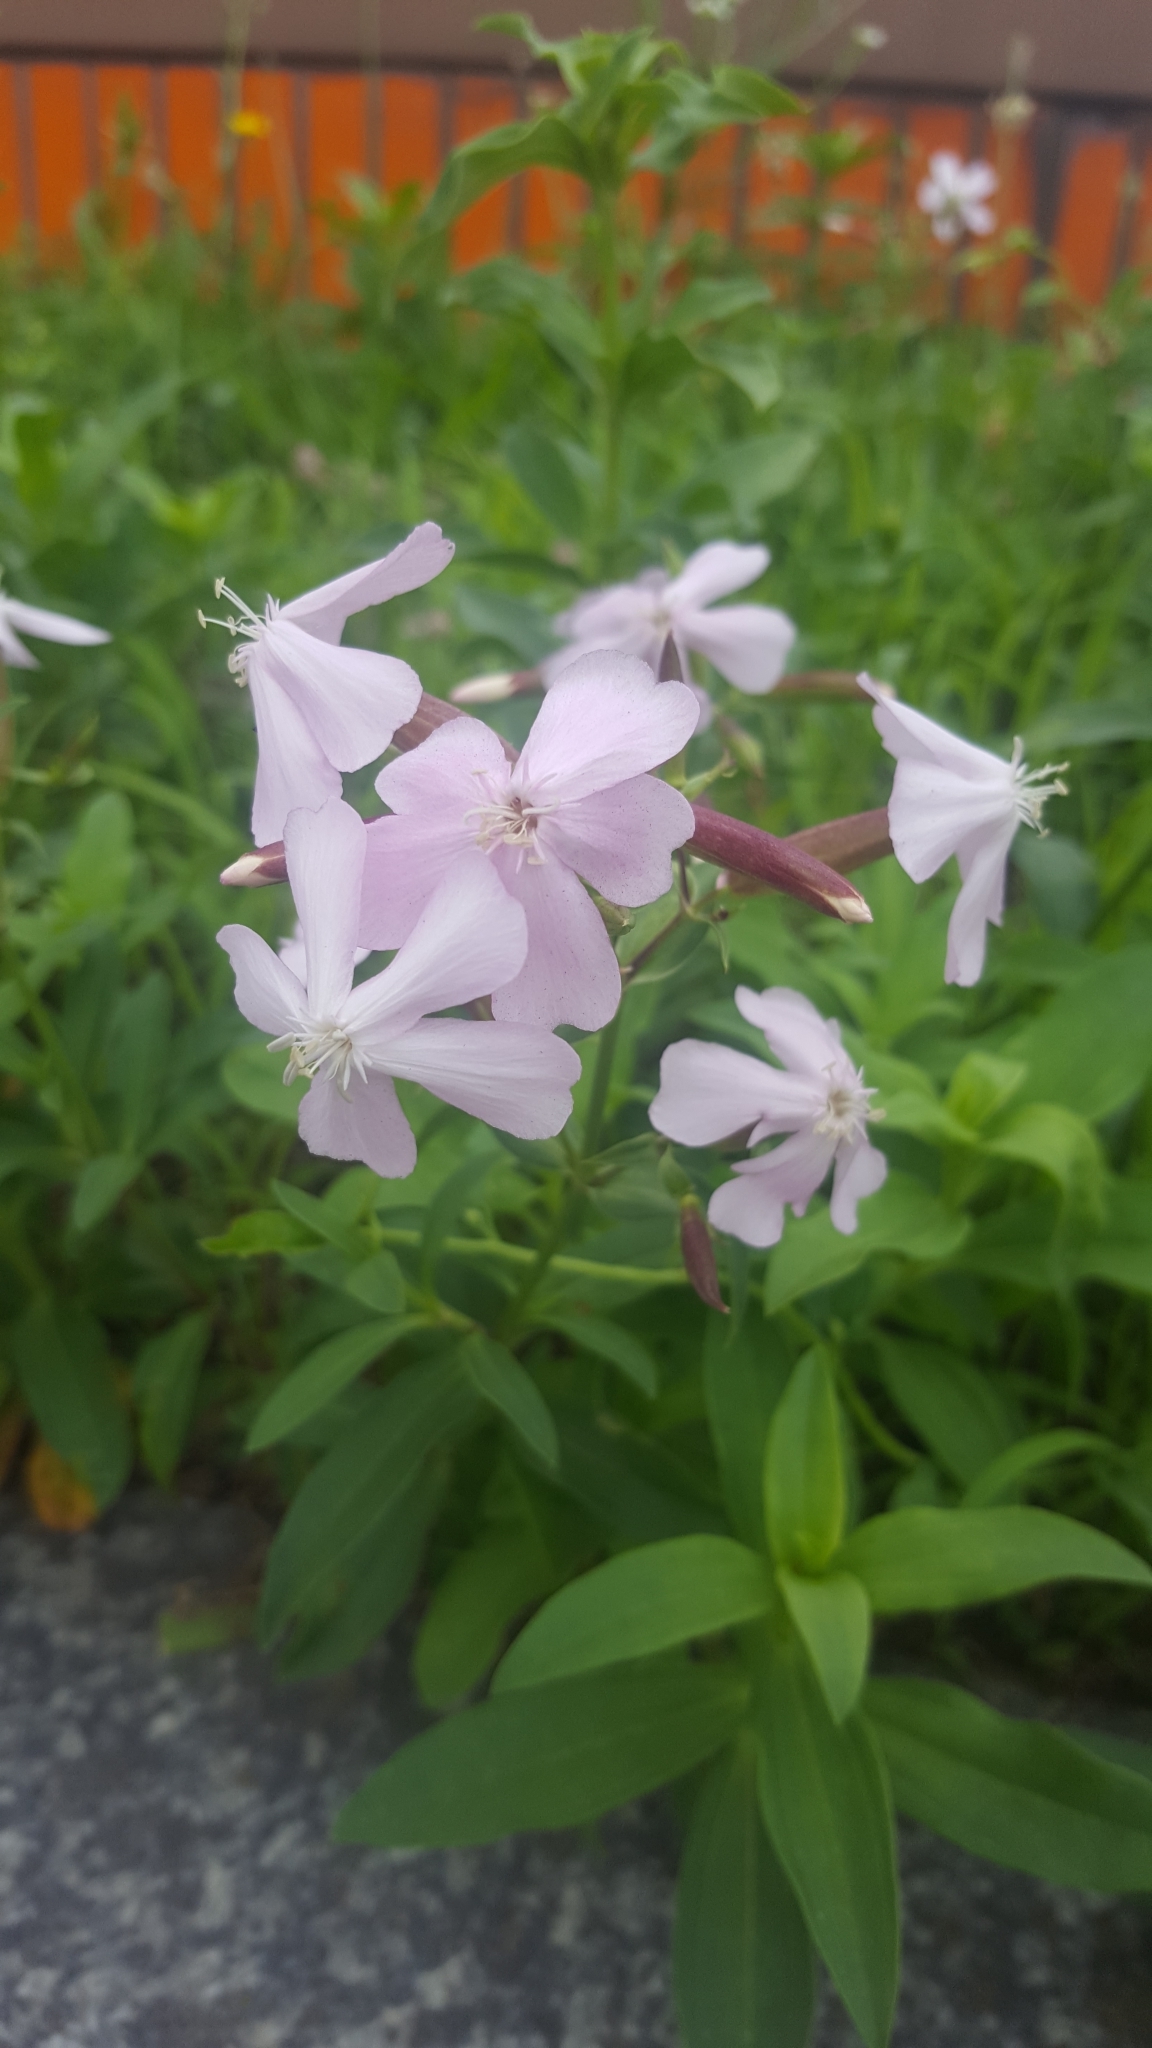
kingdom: Plantae
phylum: Tracheophyta
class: Magnoliopsida
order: Caryophyllales
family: Caryophyllaceae
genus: Saponaria
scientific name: Saponaria officinalis
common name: Soapwort
